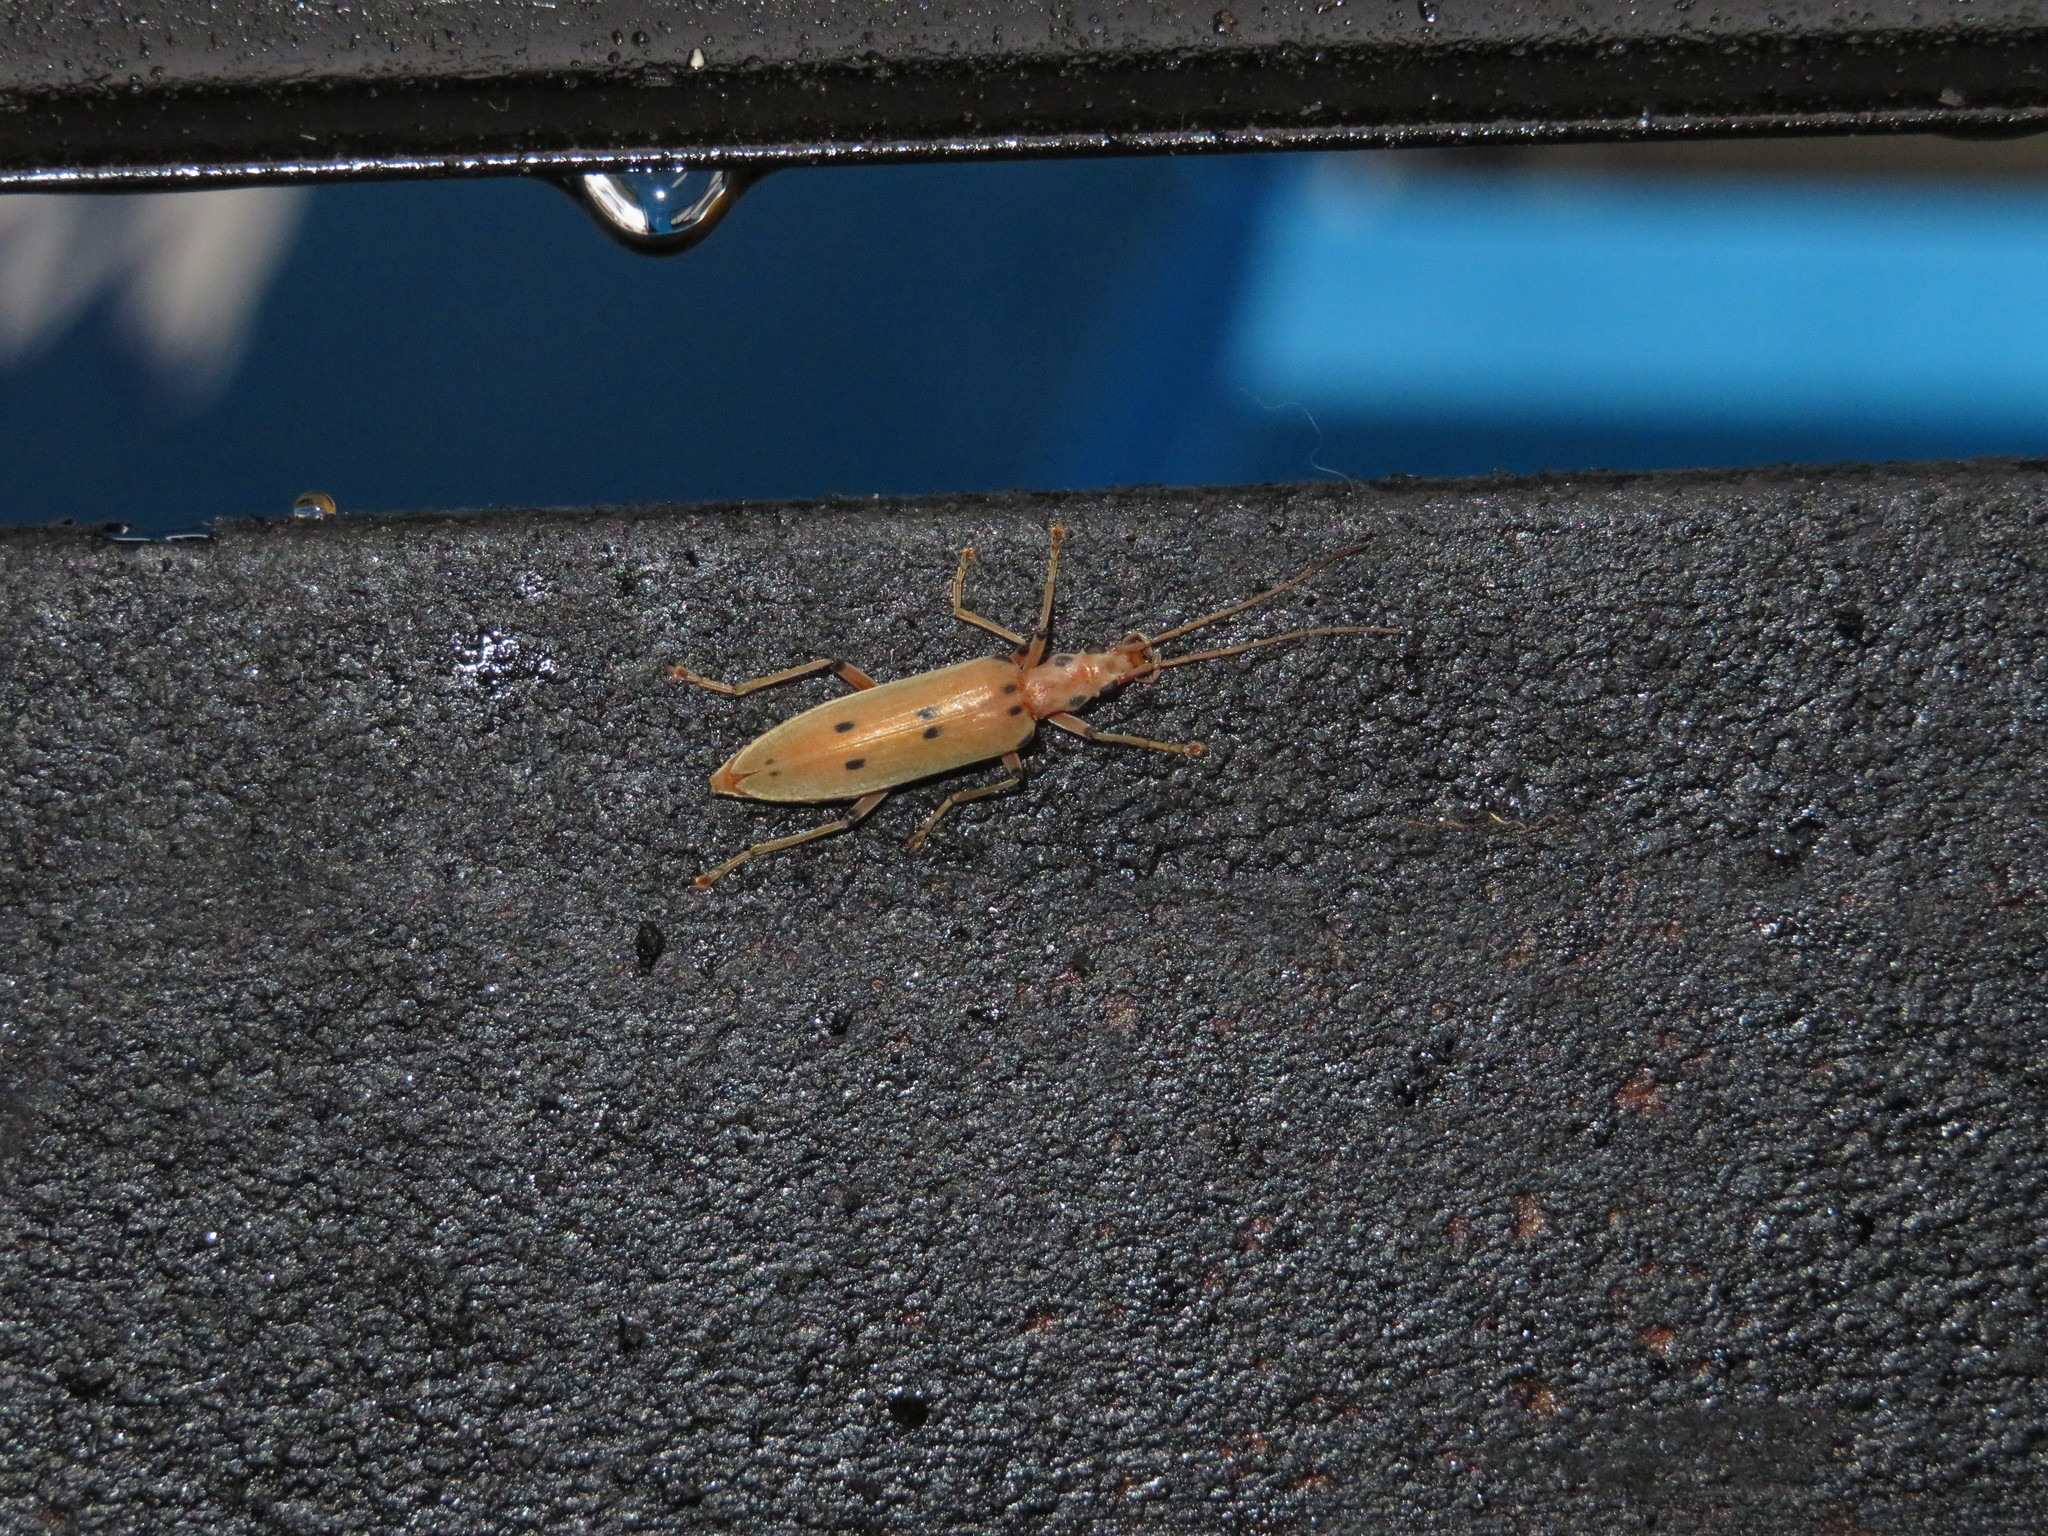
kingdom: Animalia
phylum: Arthropoda
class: Insecta
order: Coleoptera
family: Oedemeridae
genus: Parisopalpus
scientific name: Parisopalpus
